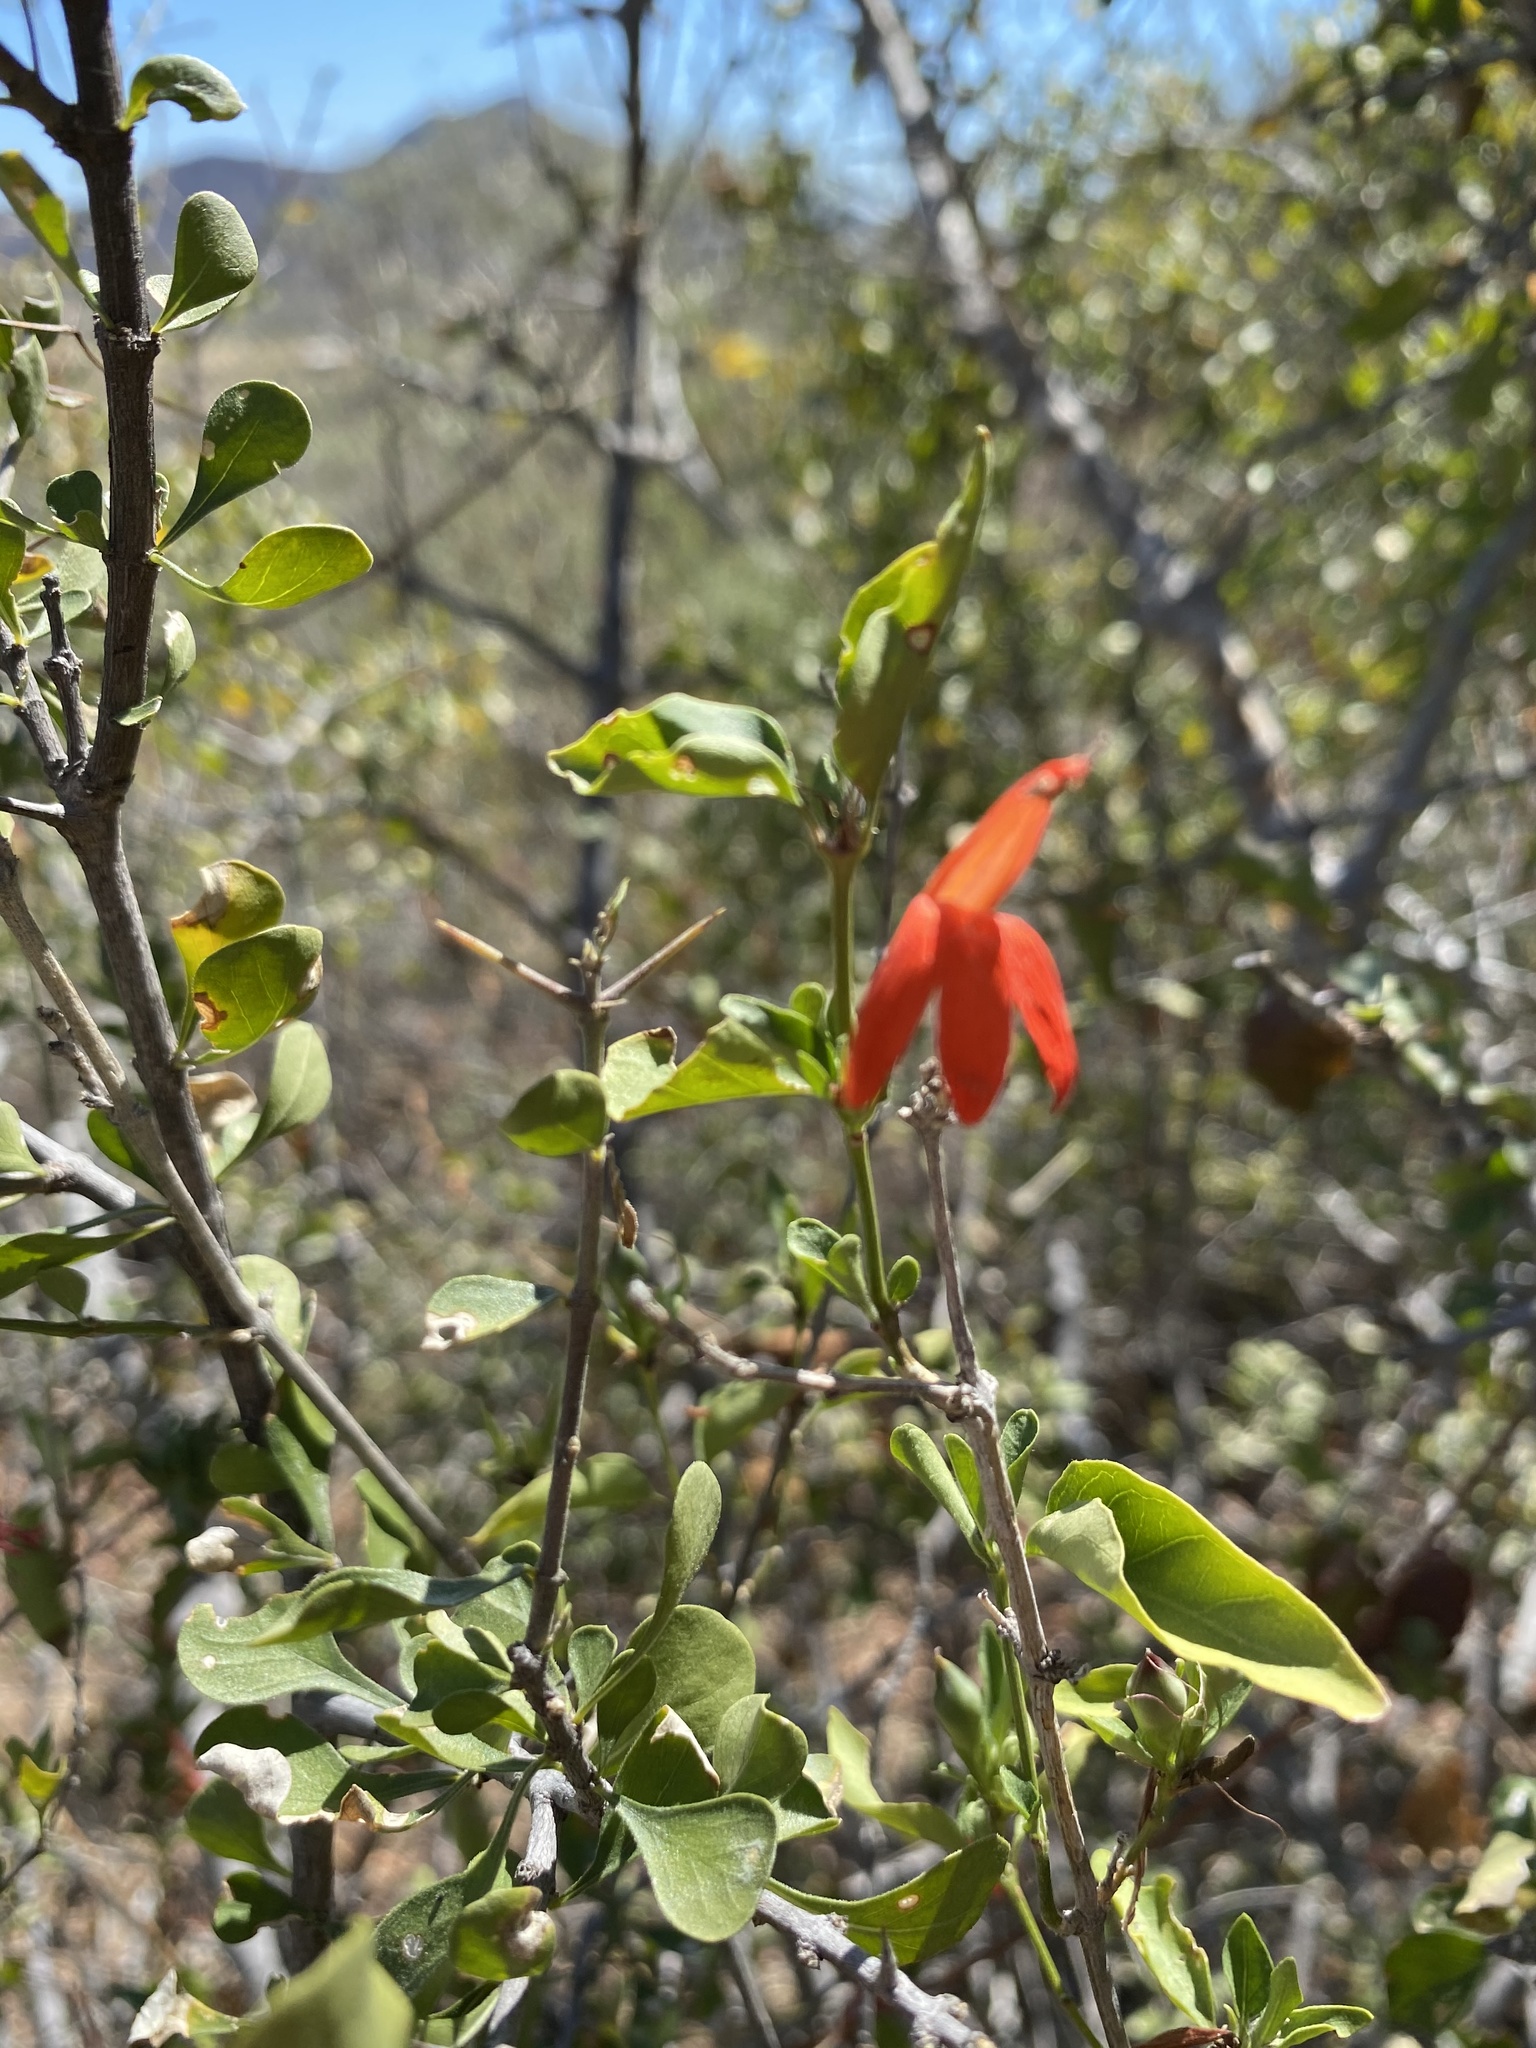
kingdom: Plantae
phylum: Tracheophyta
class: Magnoliopsida
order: Lamiales
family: Acanthaceae
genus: Dianthera
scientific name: Dianthera candicans
